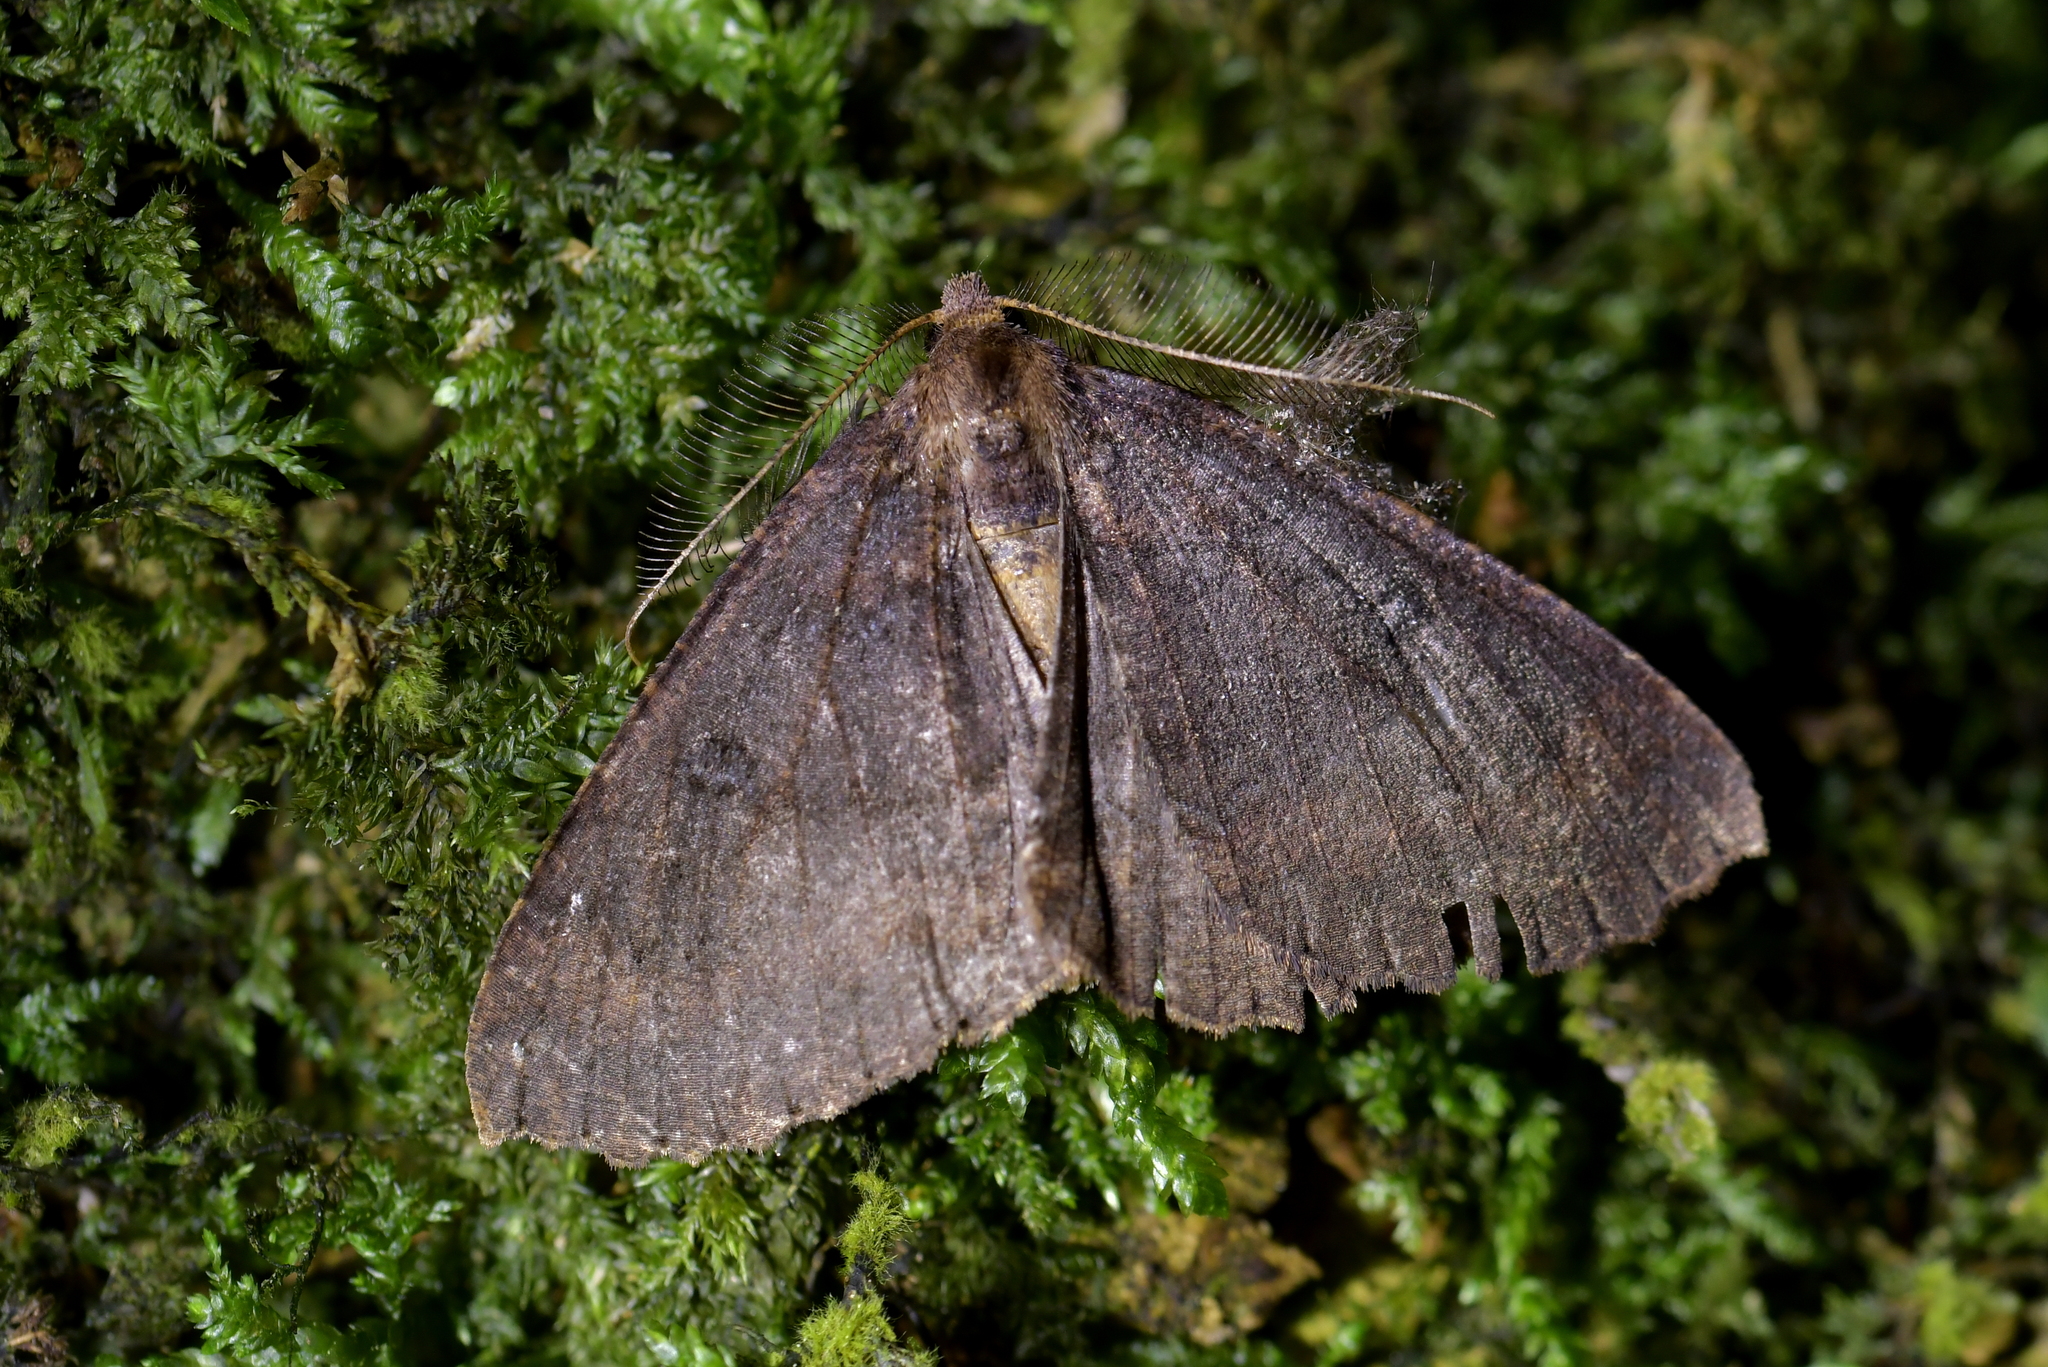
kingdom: Animalia
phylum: Arthropoda
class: Insecta
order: Lepidoptera
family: Geometridae
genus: Cleora
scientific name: Cleora scriptaria
